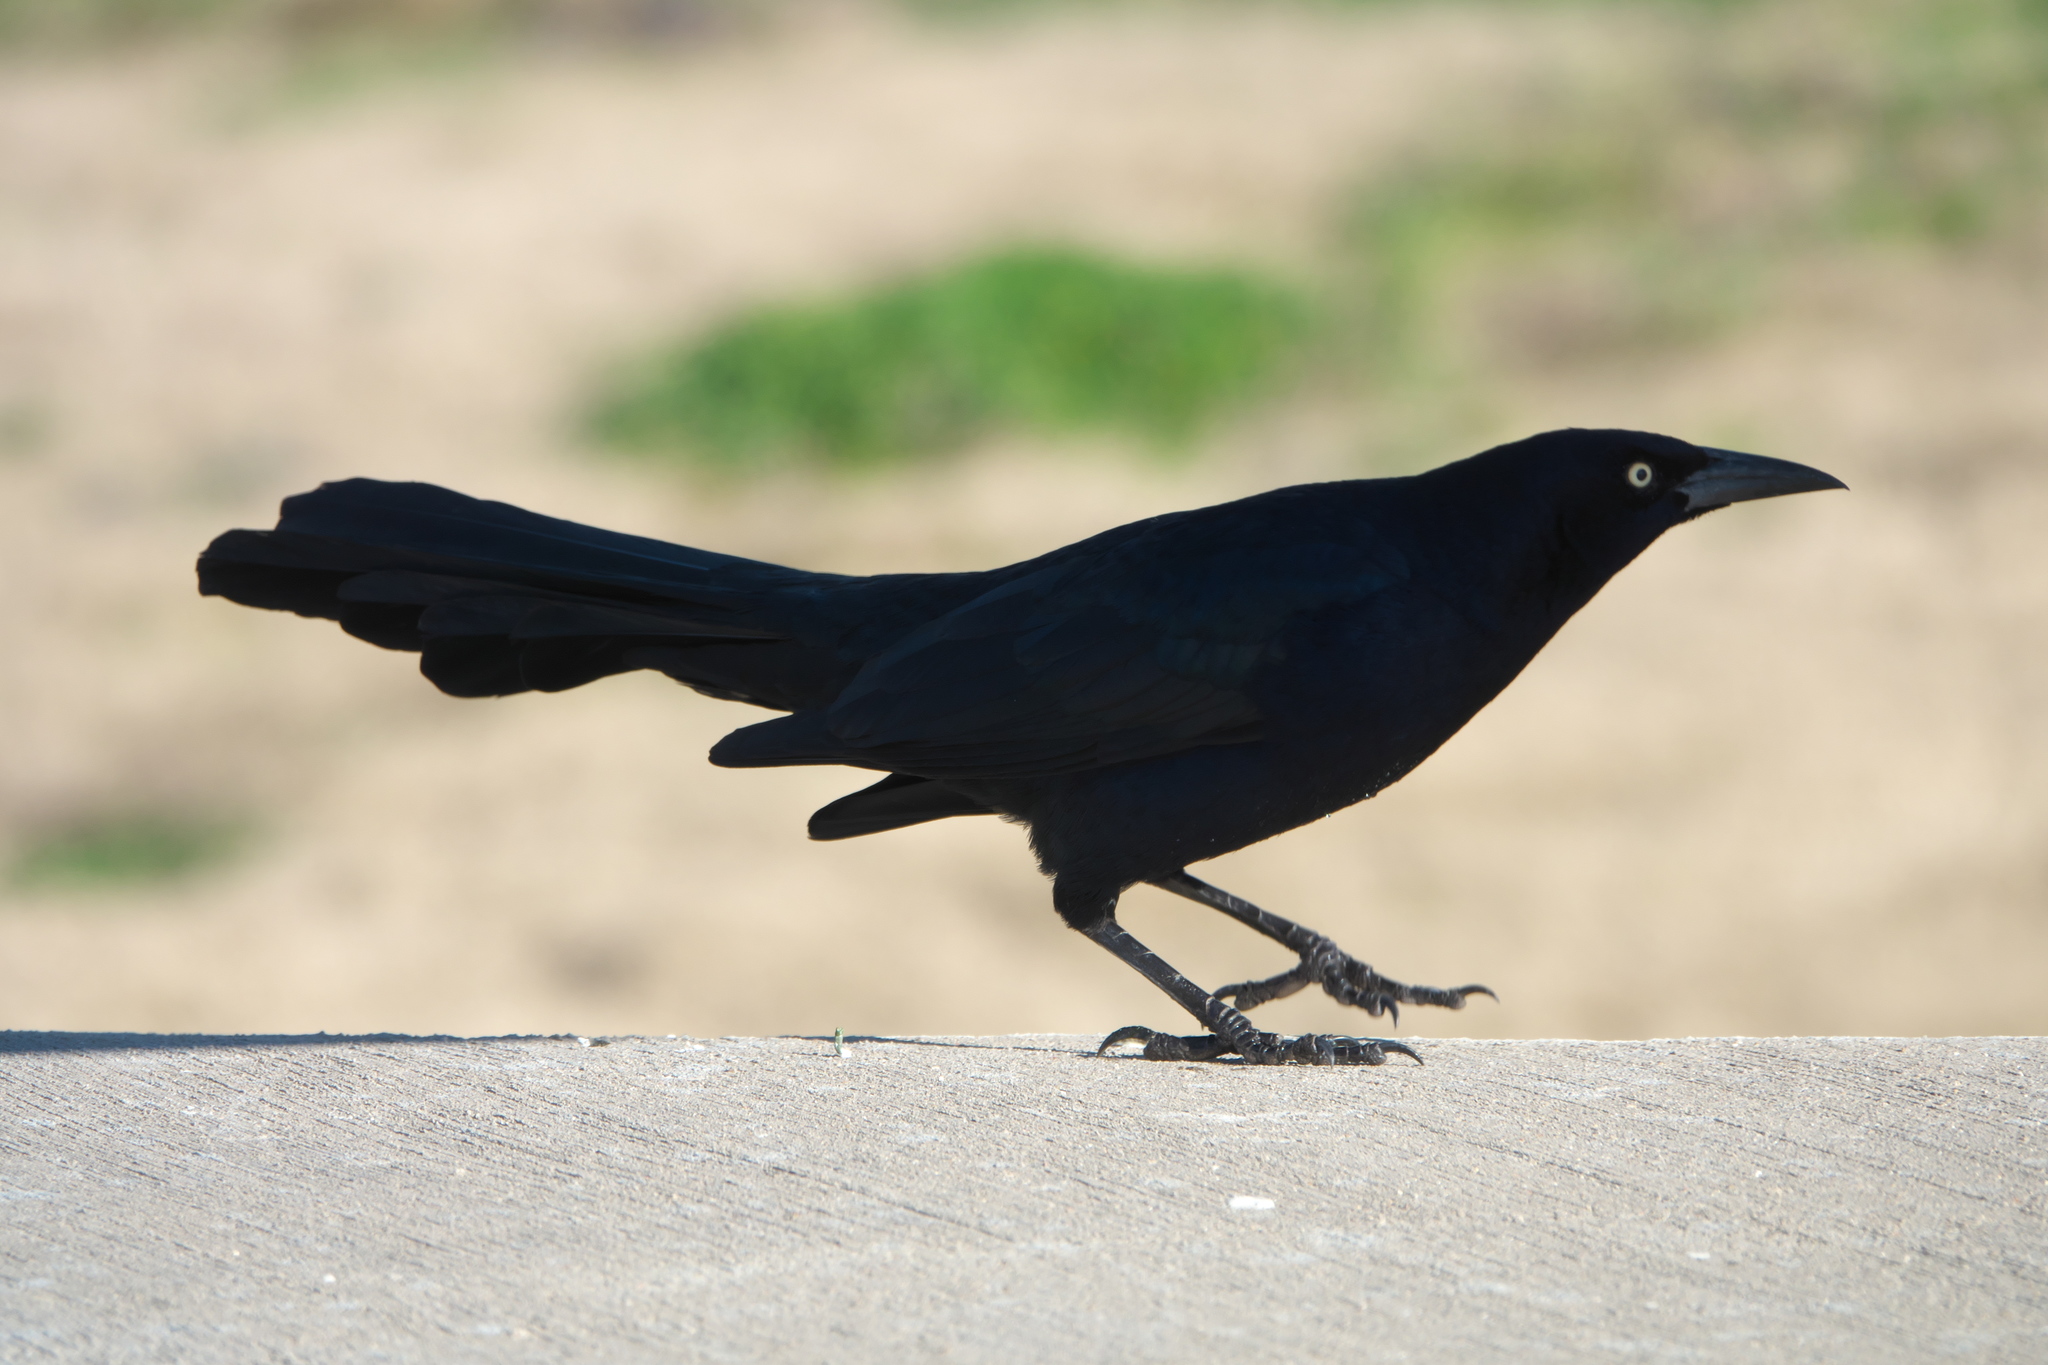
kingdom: Animalia
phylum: Chordata
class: Aves
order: Passeriformes
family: Icteridae
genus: Quiscalus
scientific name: Quiscalus mexicanus
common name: Great-tailed grackle
